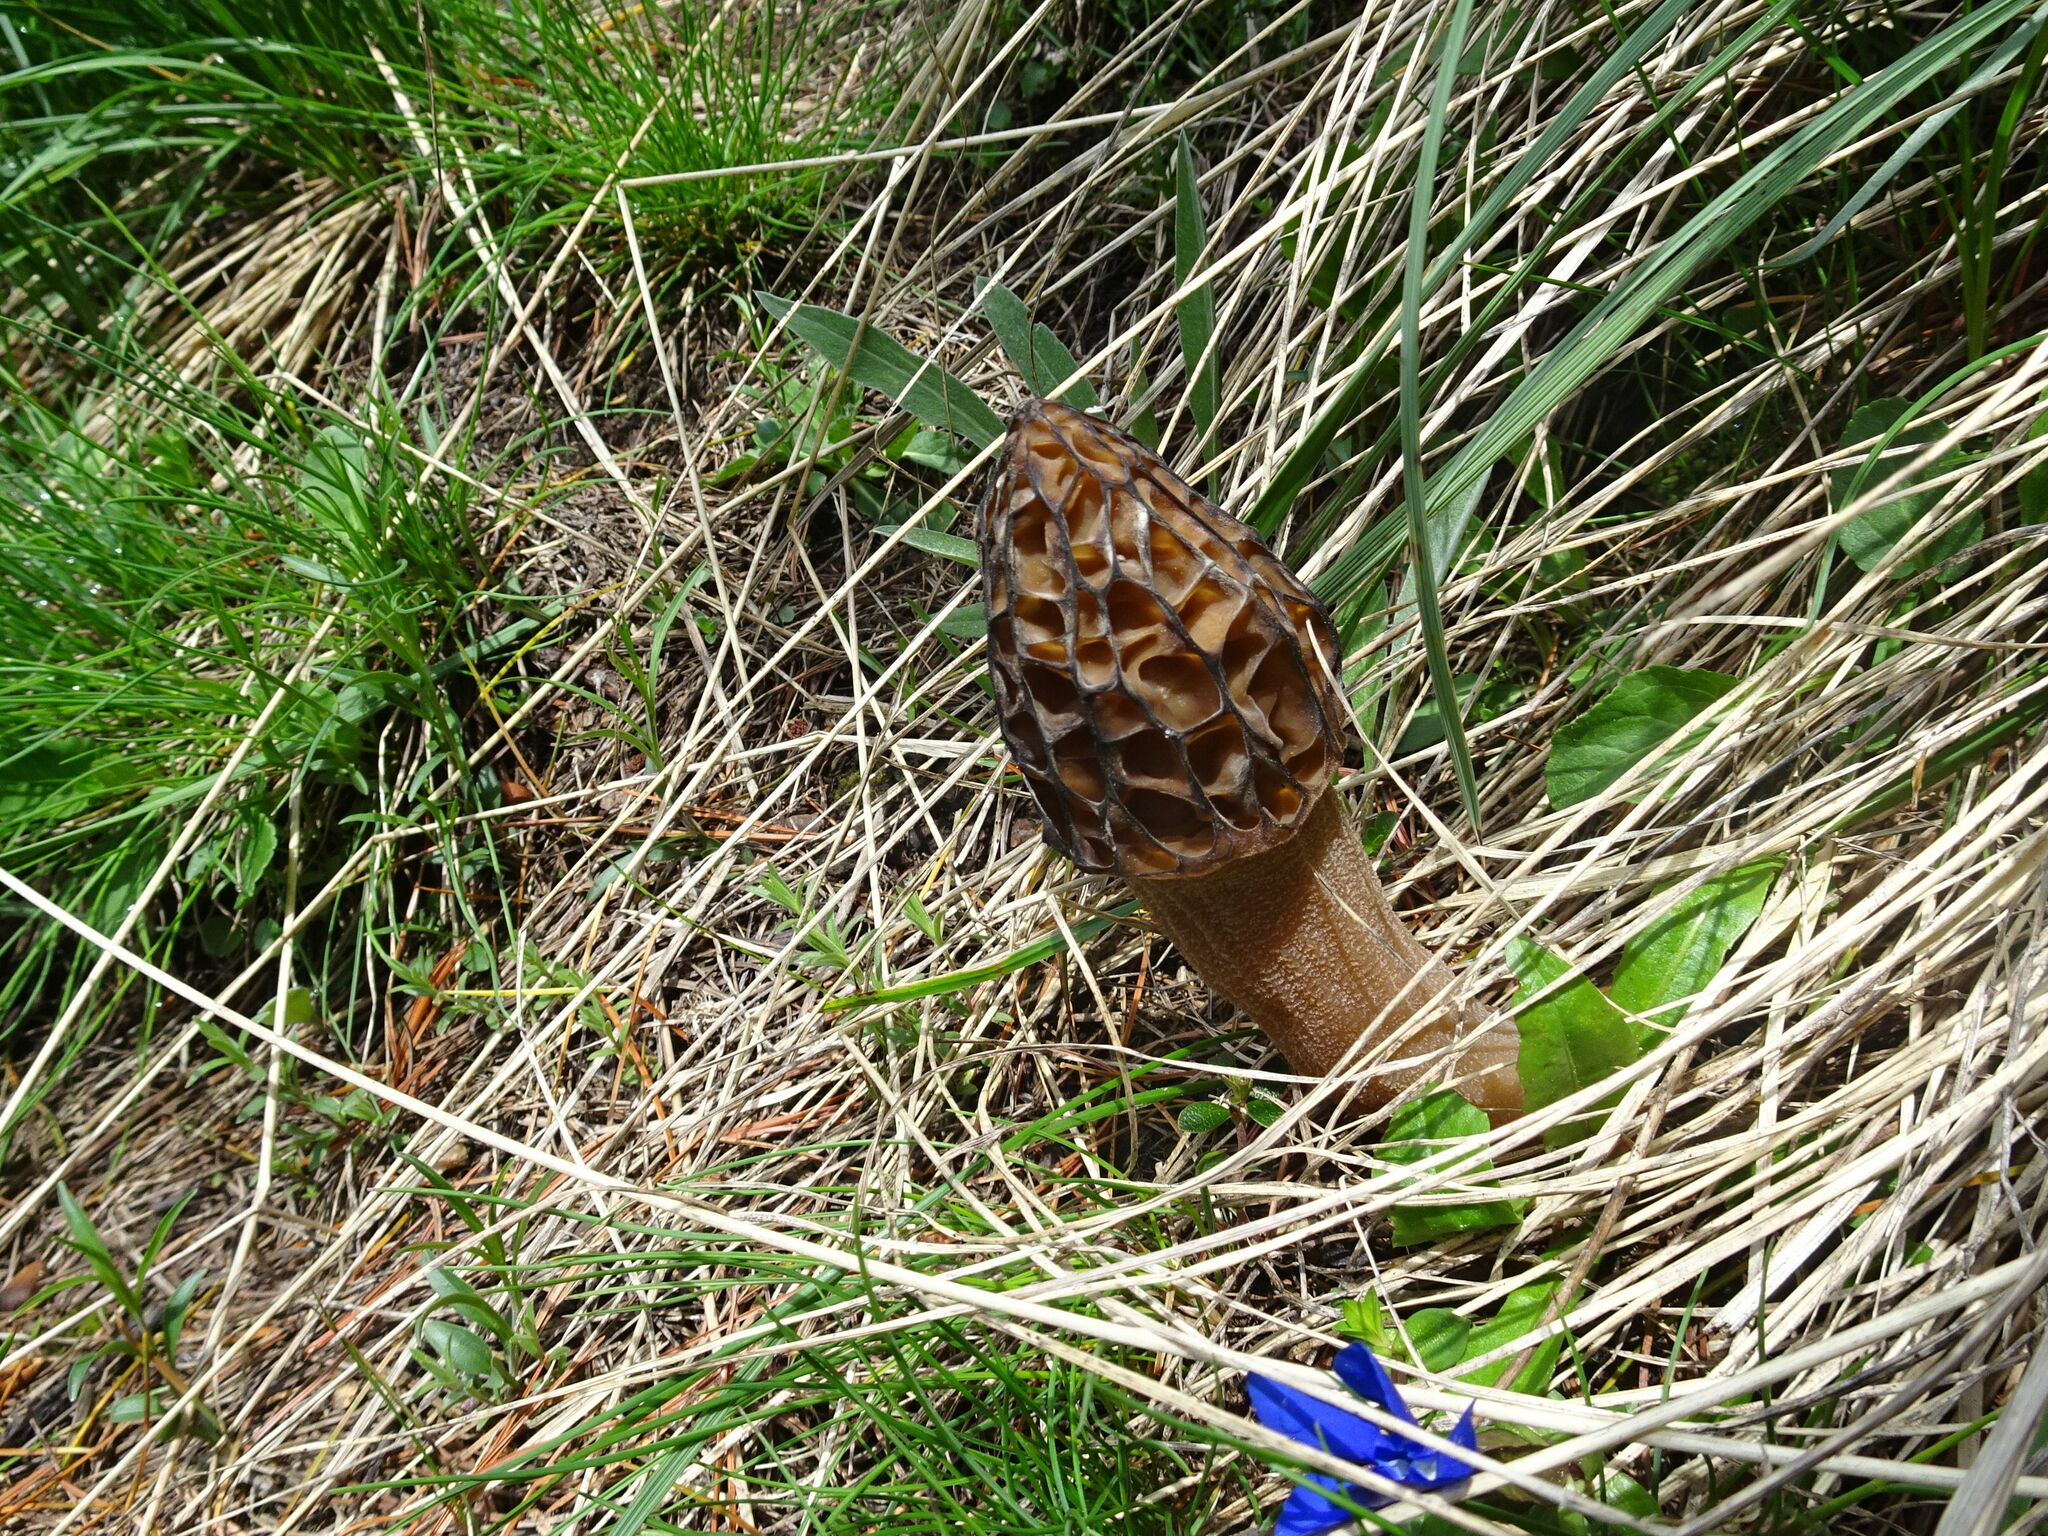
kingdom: Fungi
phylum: Ascomycota
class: Pezizomycetes
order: Pezizales
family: Morchellaceae
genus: Morchella
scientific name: Morchella
